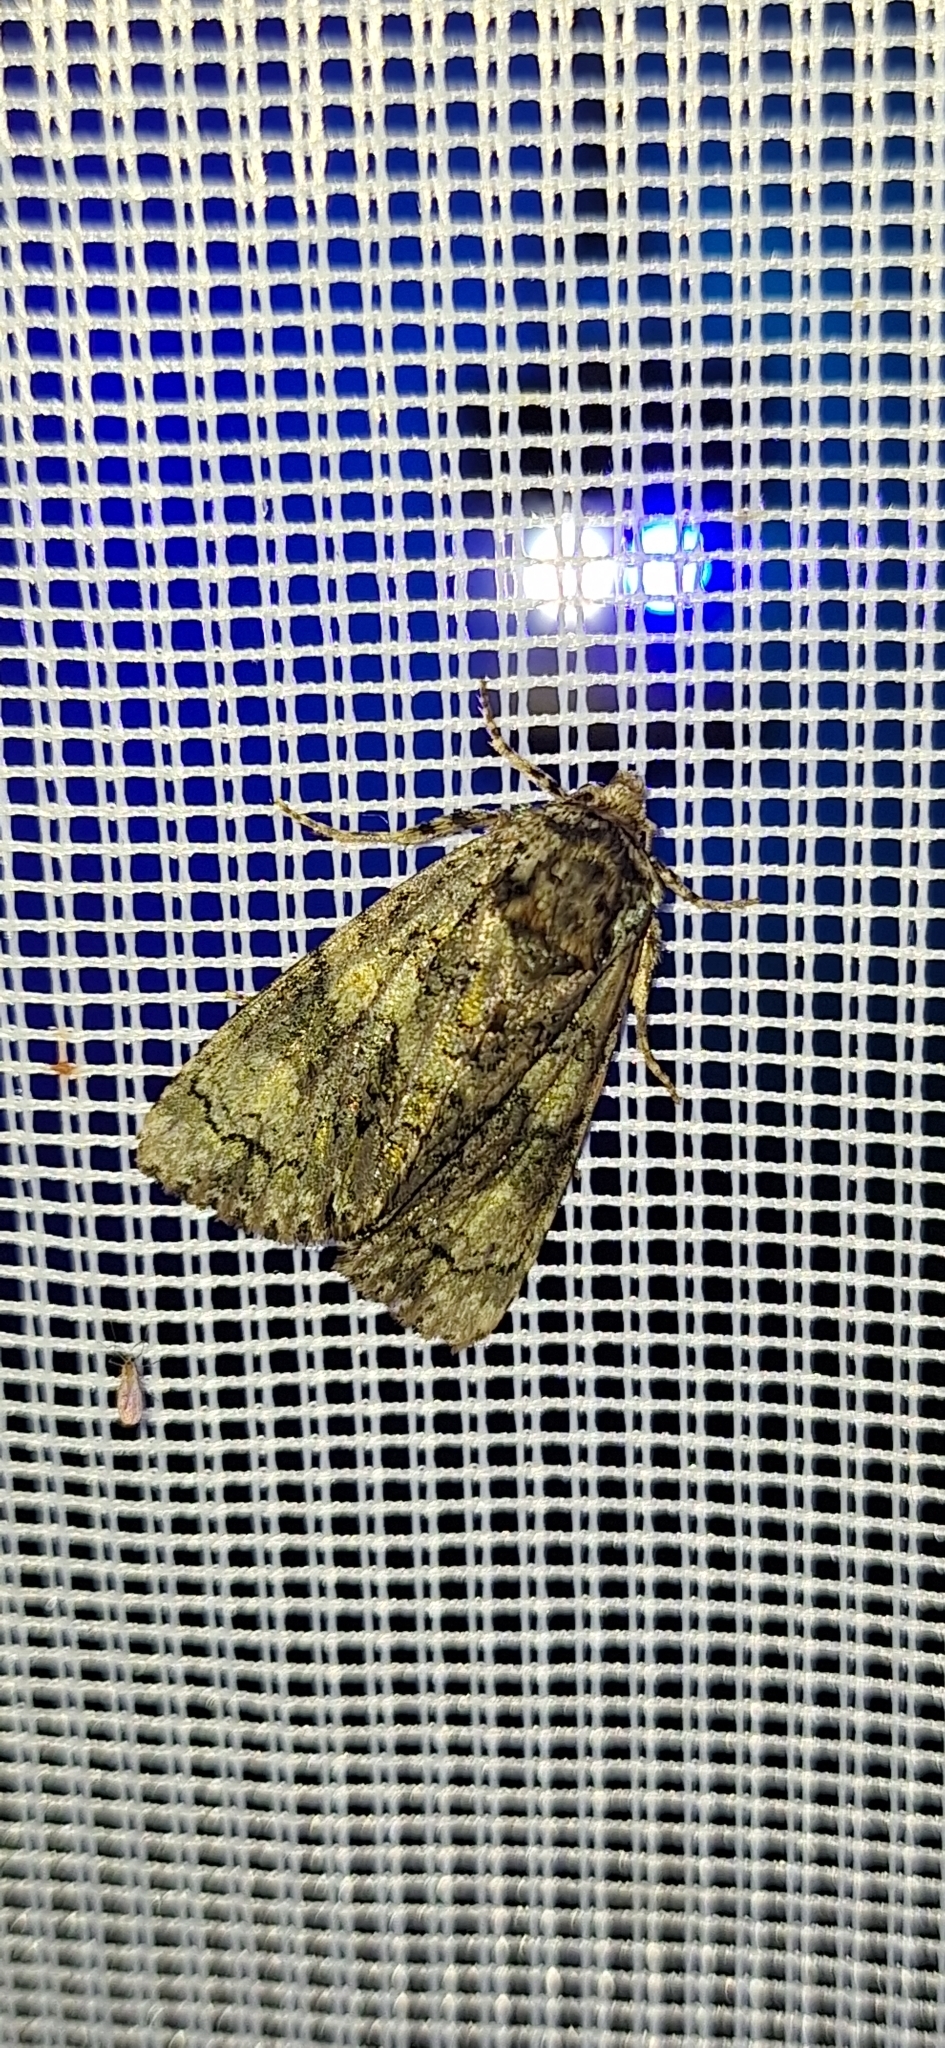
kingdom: Animalia
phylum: Arthropoda
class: Insecta
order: Lepidoptera
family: Noctuidae
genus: Craniophora
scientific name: Craniophora ligustri
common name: Coronet
